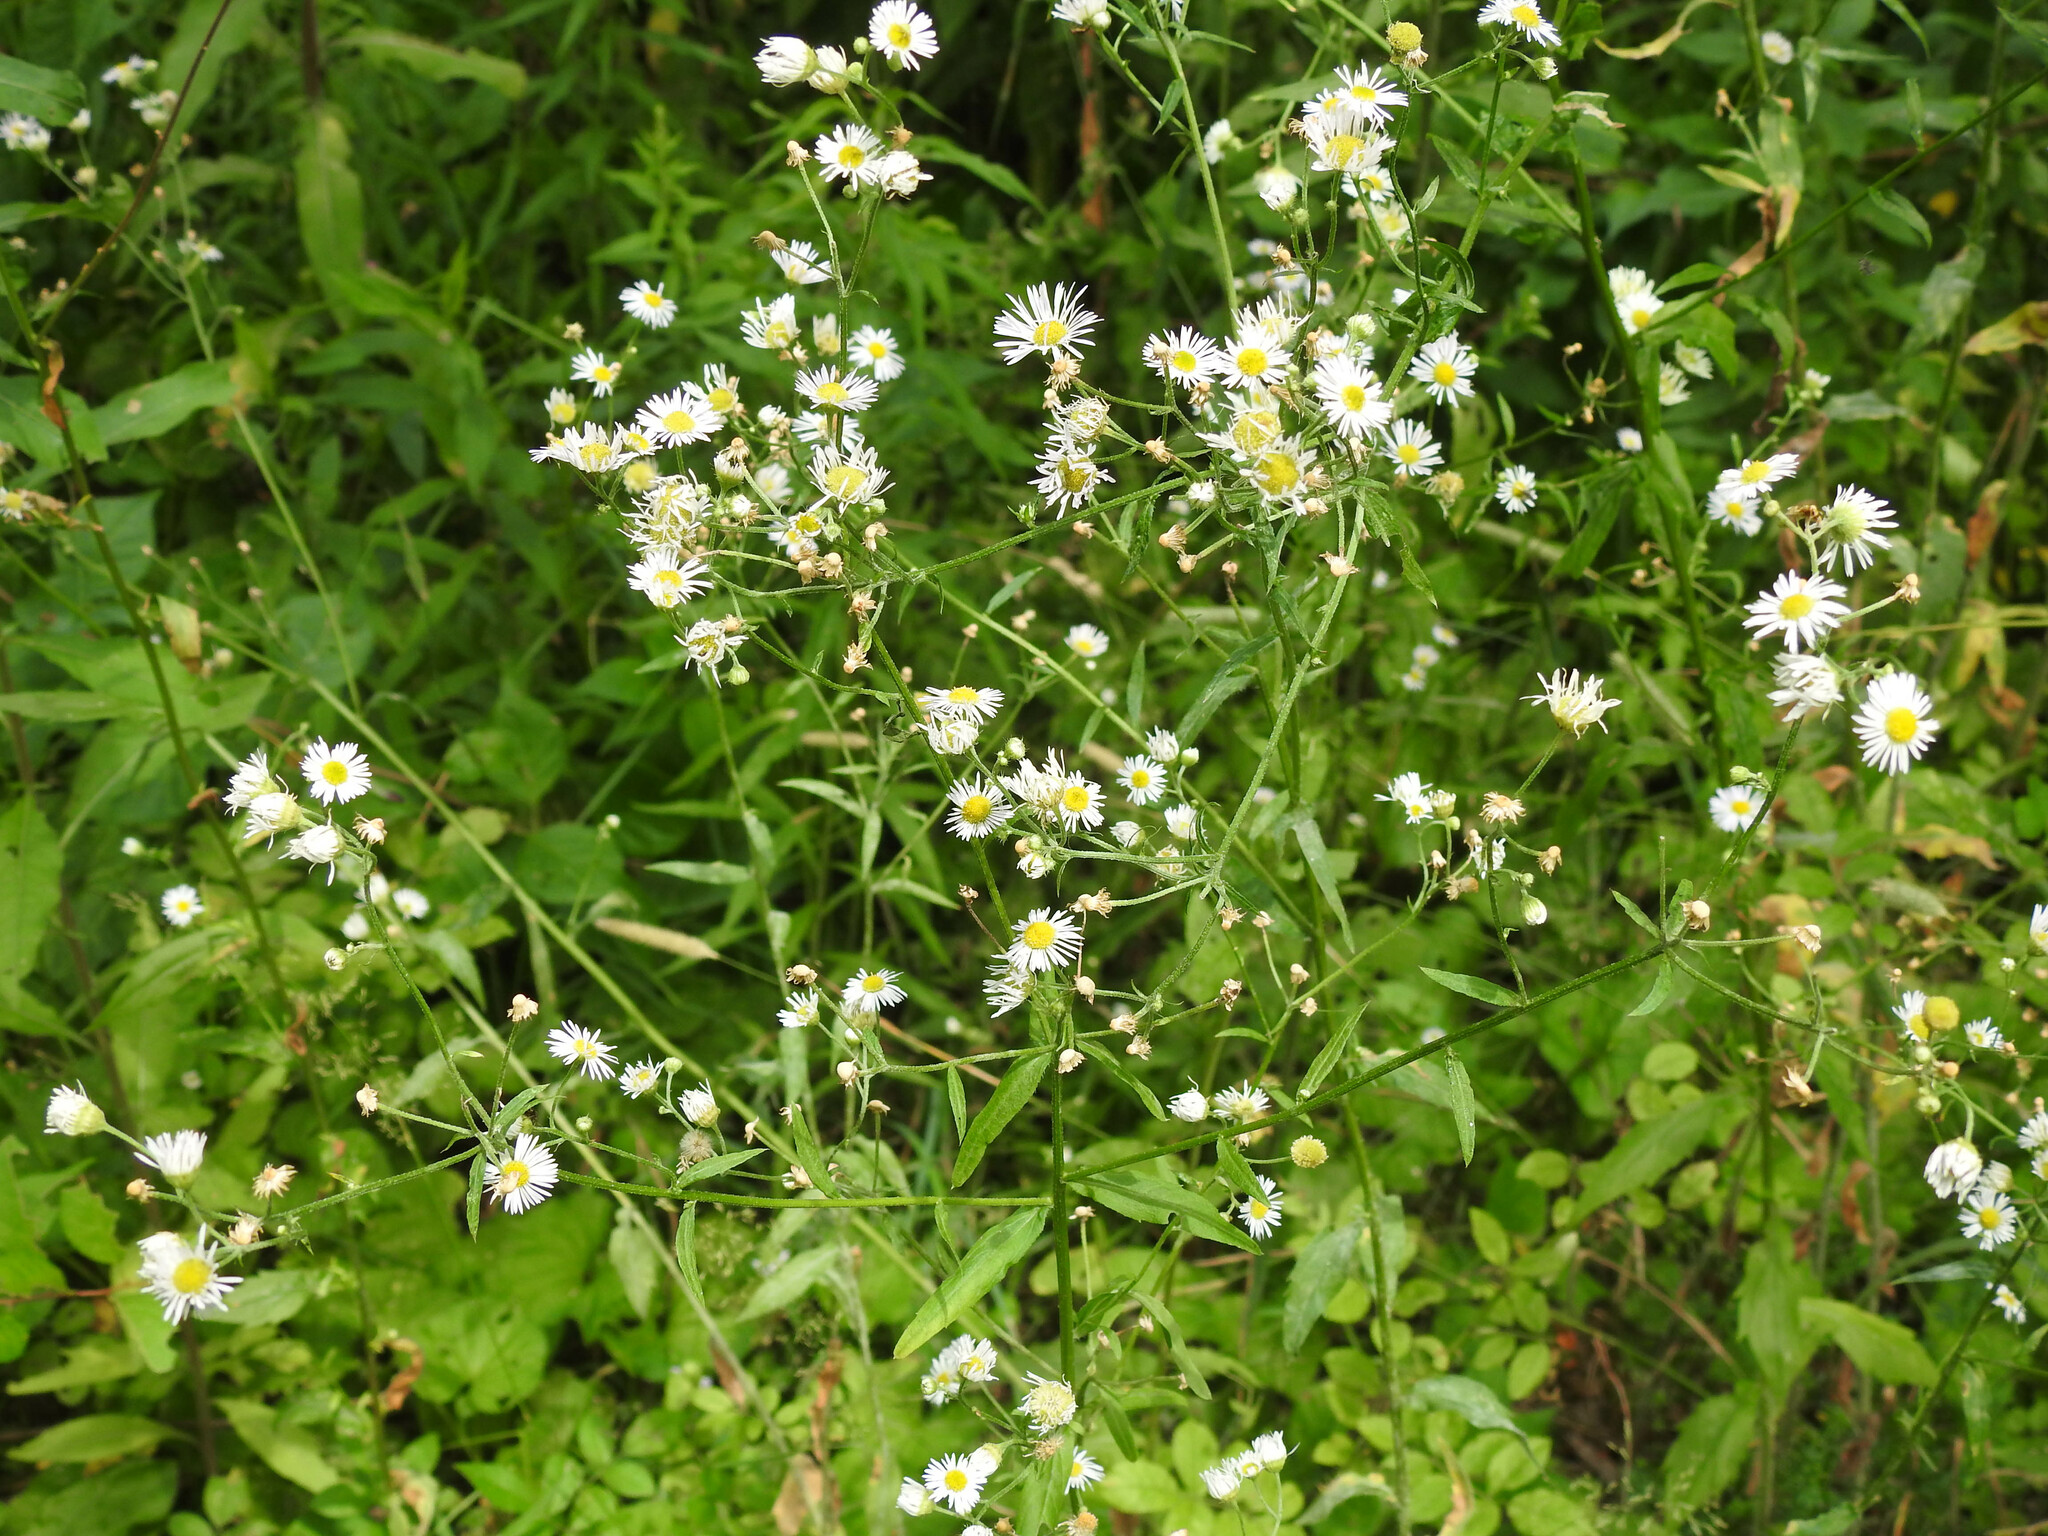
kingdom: Plantae
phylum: Tracheophyta
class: Magnoliopsida
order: Asterales
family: Asteraceae
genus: Erigeron
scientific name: Erigeron strigosus
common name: Common eastern fleabane
